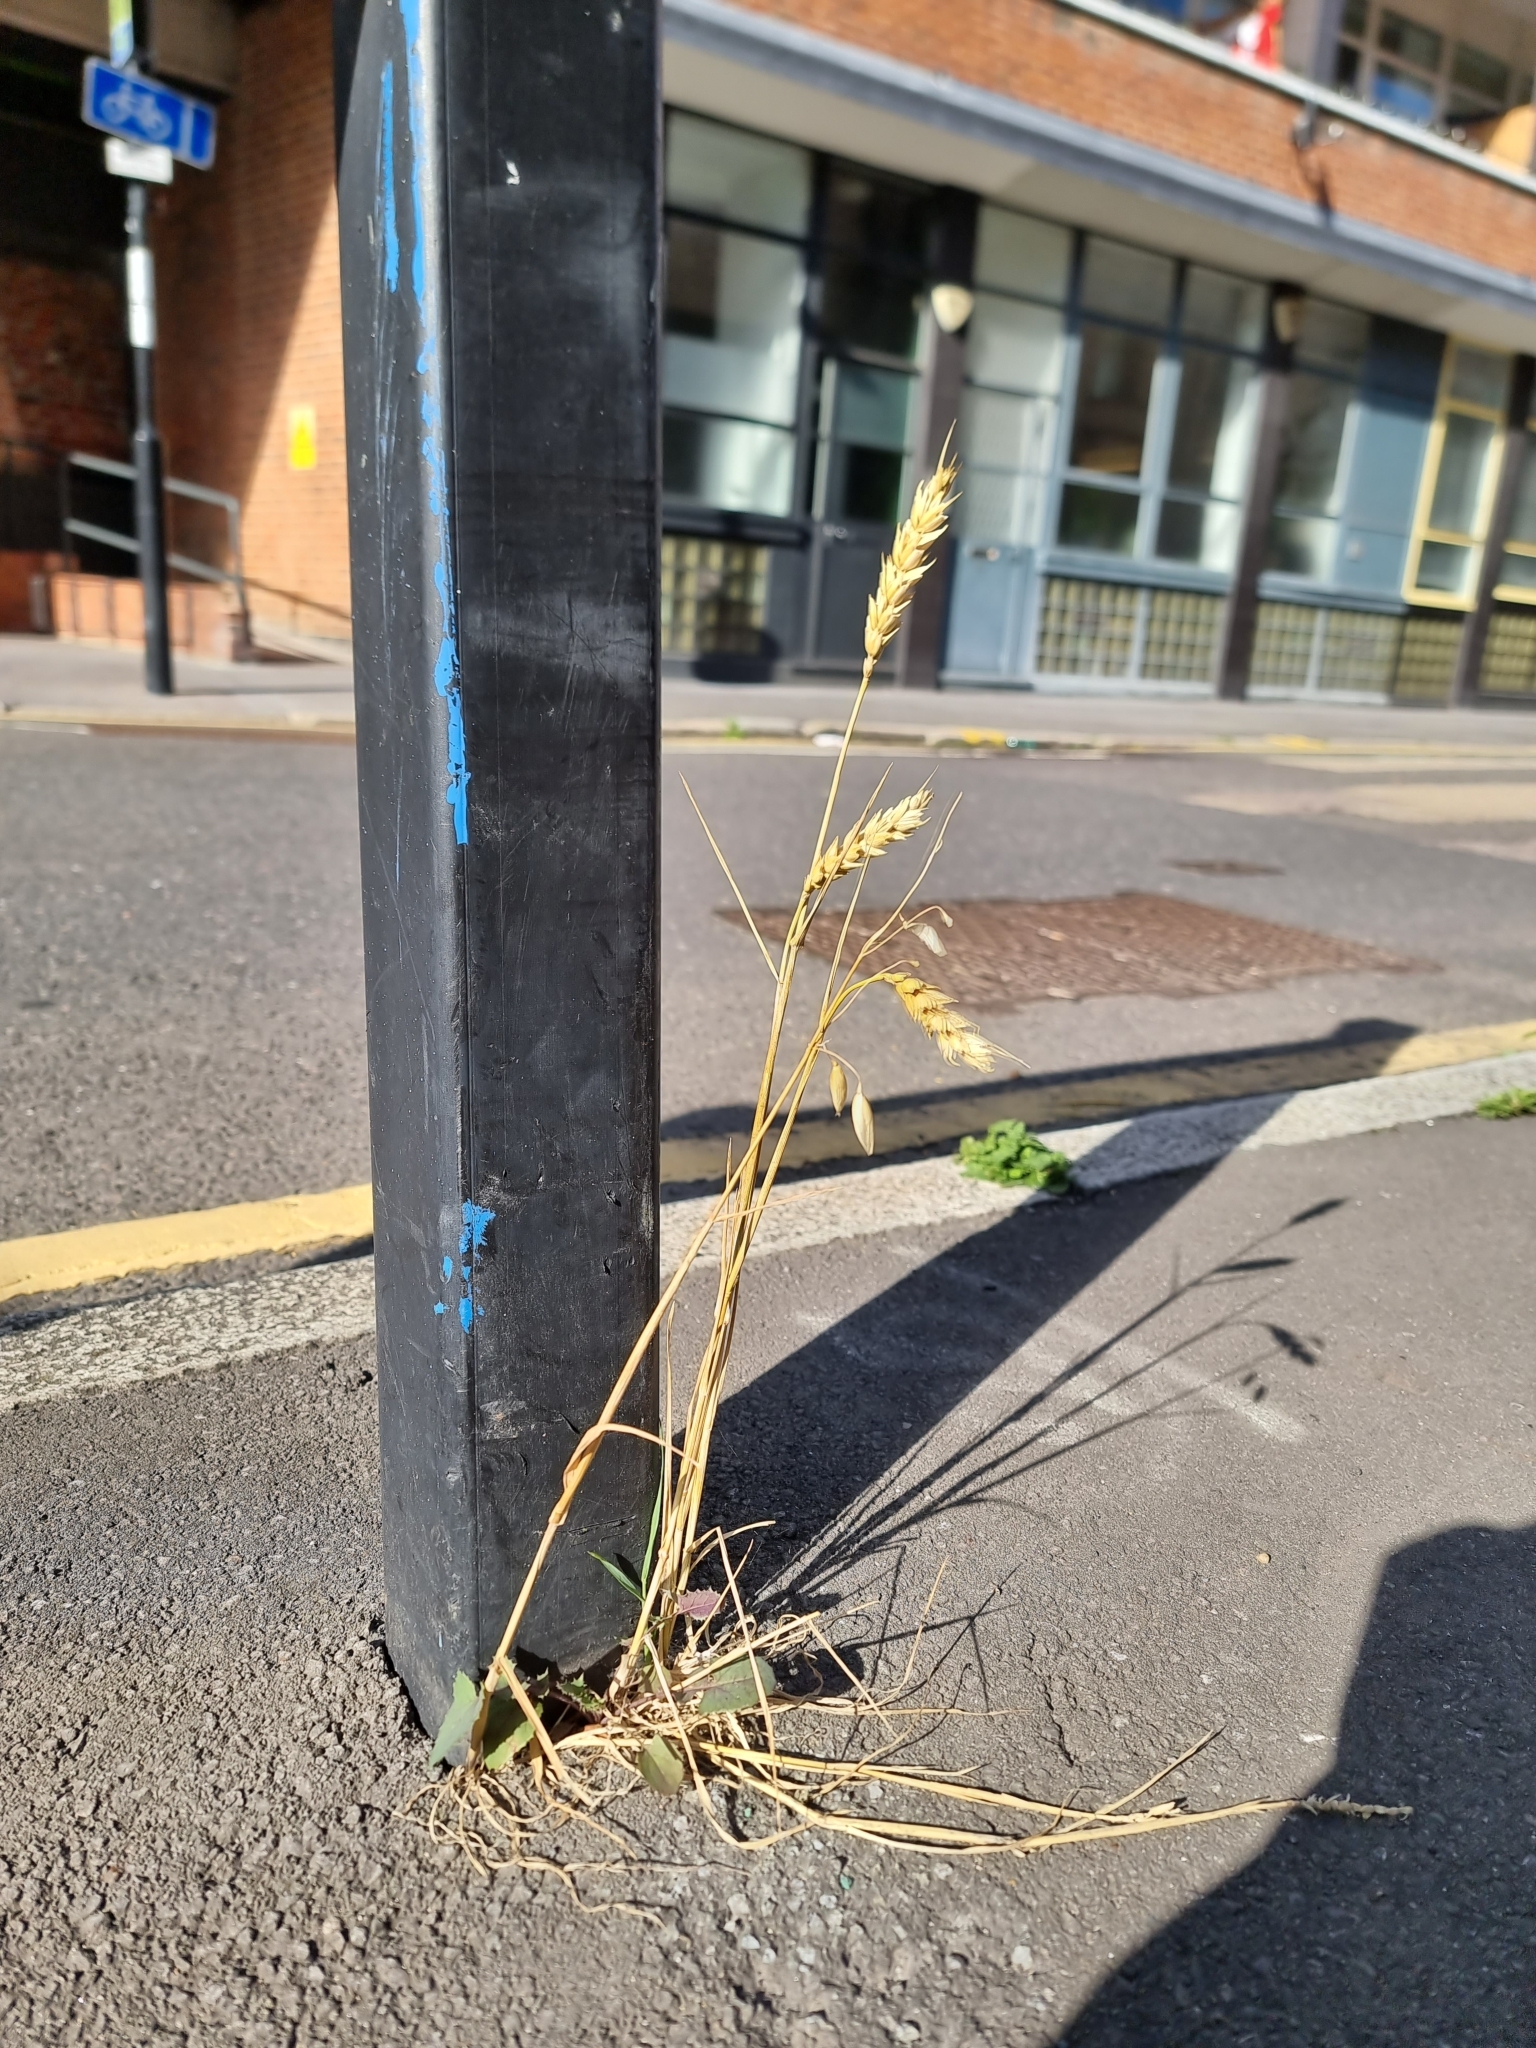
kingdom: Plantae
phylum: Tracheophyta
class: Liliopsida
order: Poales
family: Poaceae
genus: Triticum
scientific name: Triticum aestivum
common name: Common wheat
